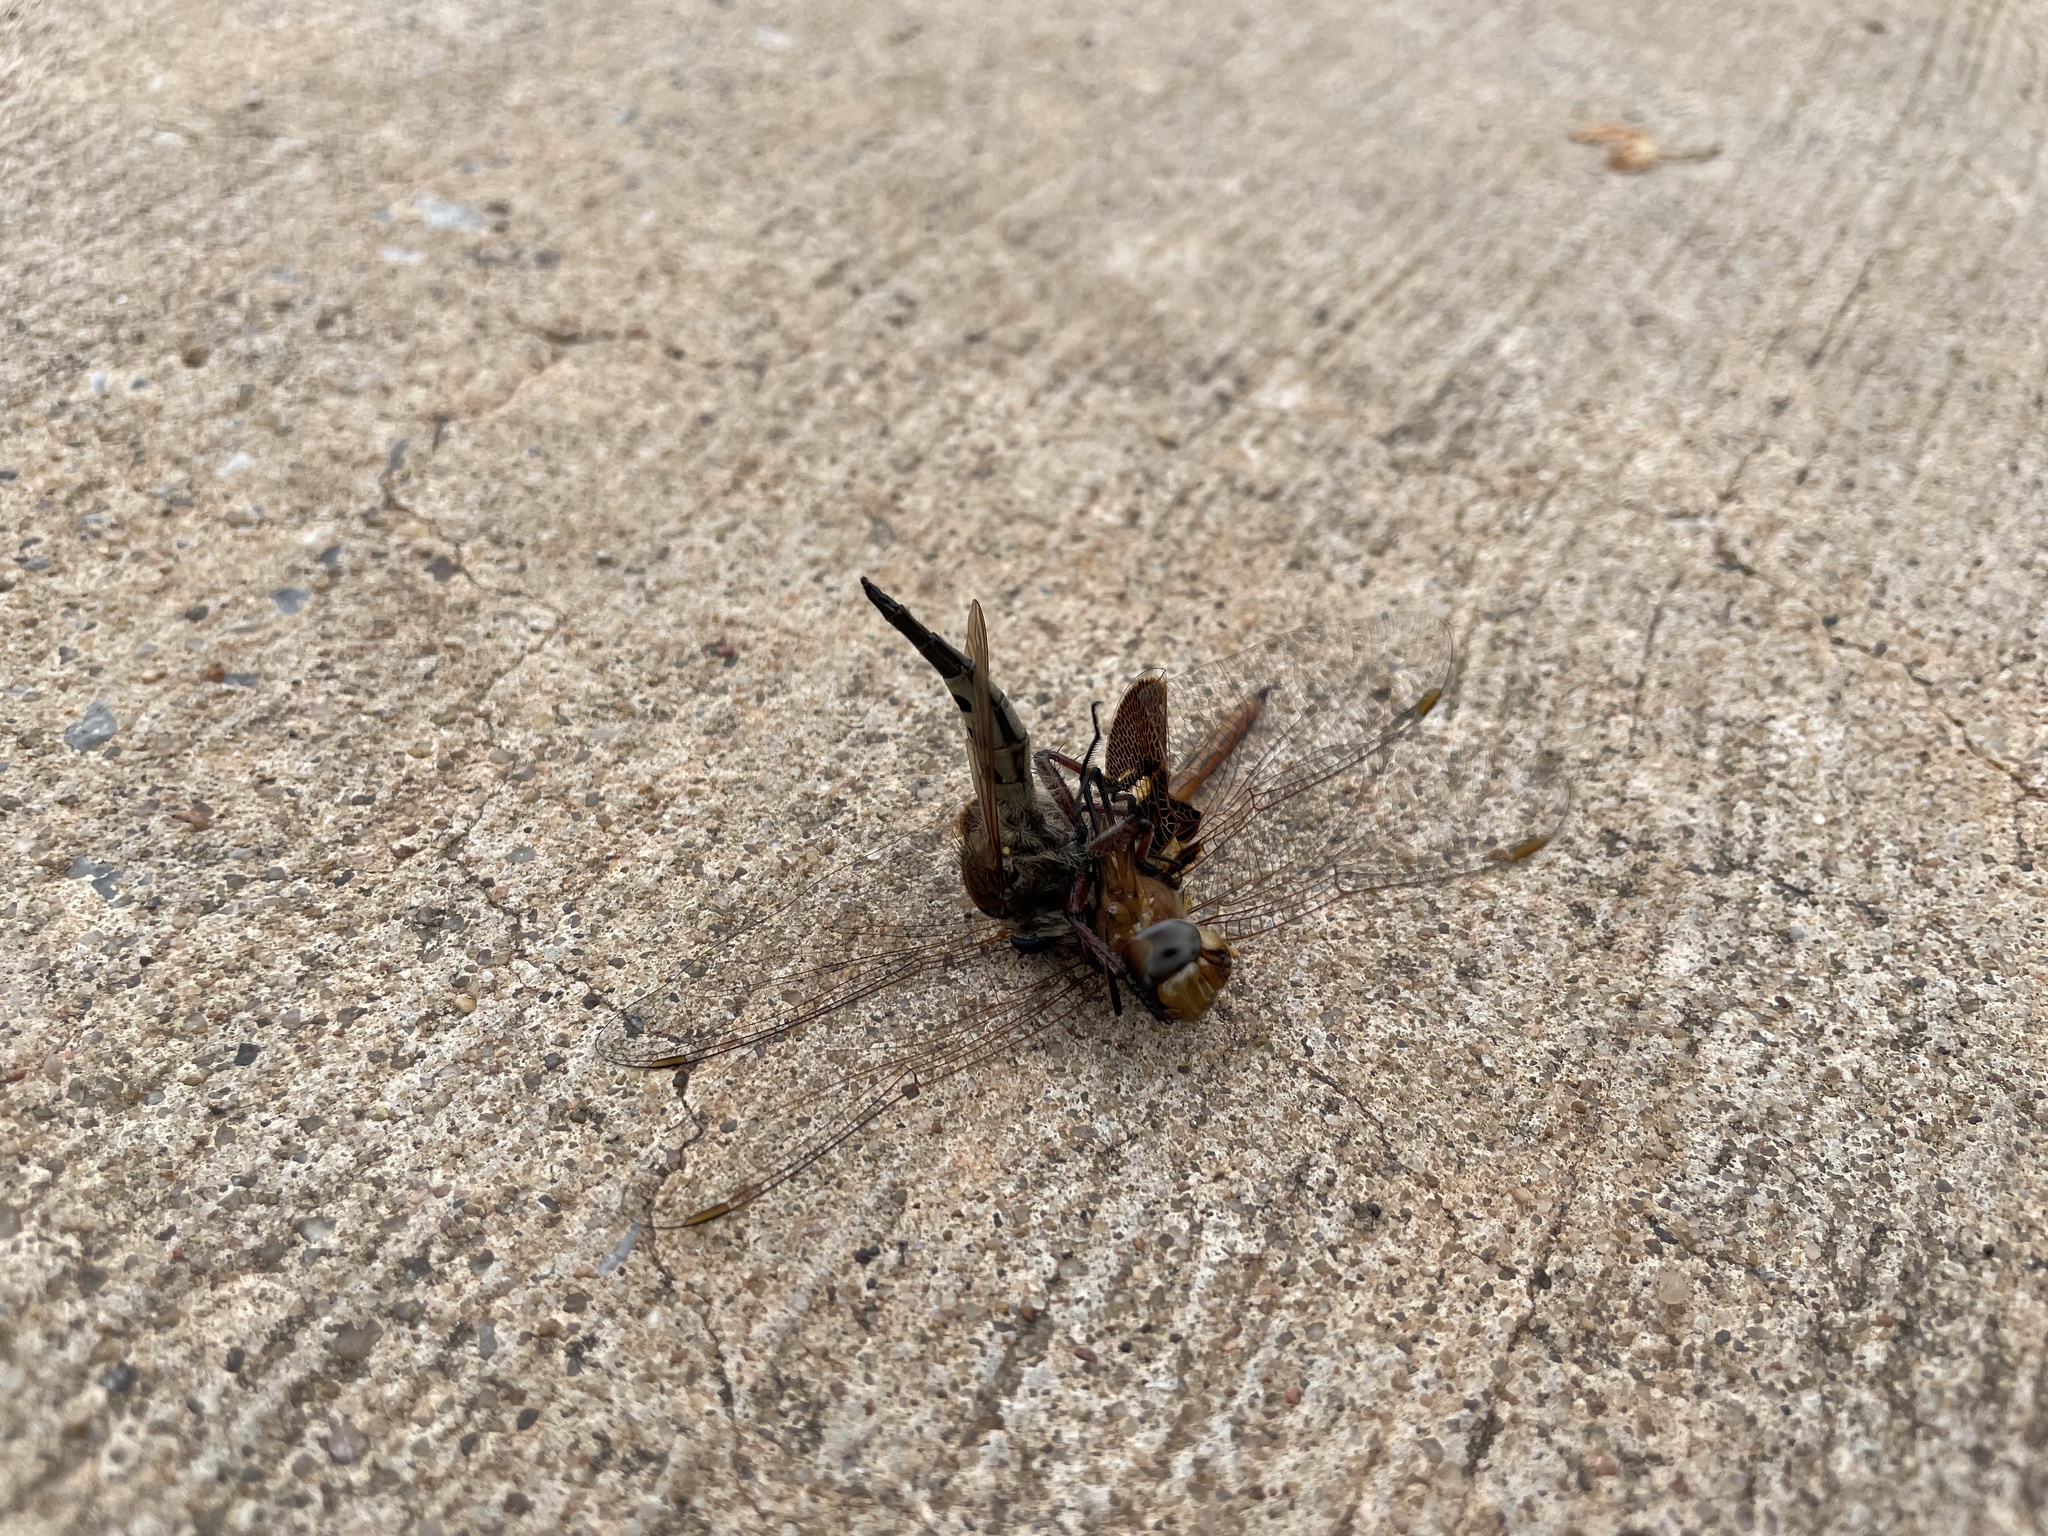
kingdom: Animalia
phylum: Arthropoda
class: Insecta
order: Diptera
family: Asilidae
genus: Promachus
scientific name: Promachus hinei
